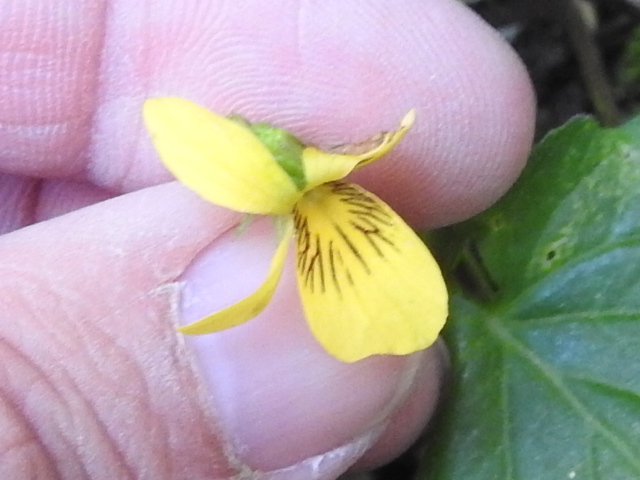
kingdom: Plantae
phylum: Tracheophyta
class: Magnoliopsida
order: Malpighiales
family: Violaceae
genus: Viola
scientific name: Viola glabella
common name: Stream violet
